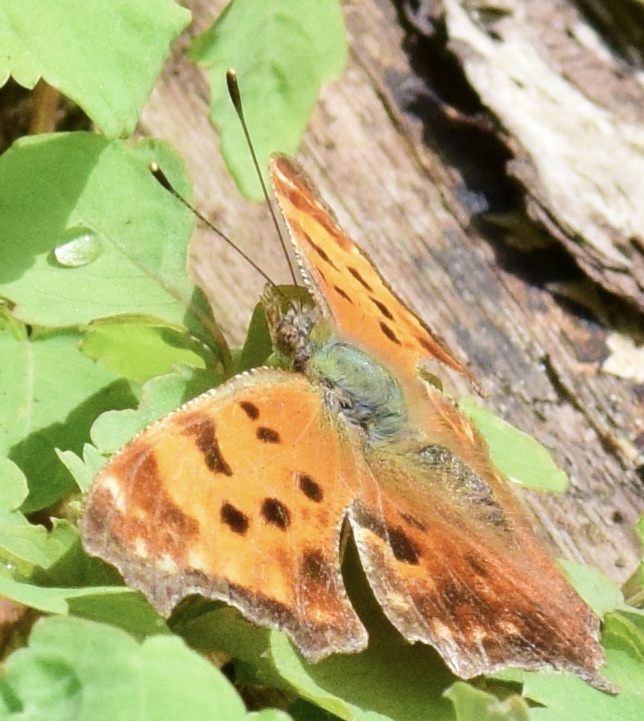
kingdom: Animalia
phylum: Arthropoda
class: Insecta
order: Lepidoptera
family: Nymphalidae
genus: Polygonia
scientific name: Polygonia comma
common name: Eastern comma
